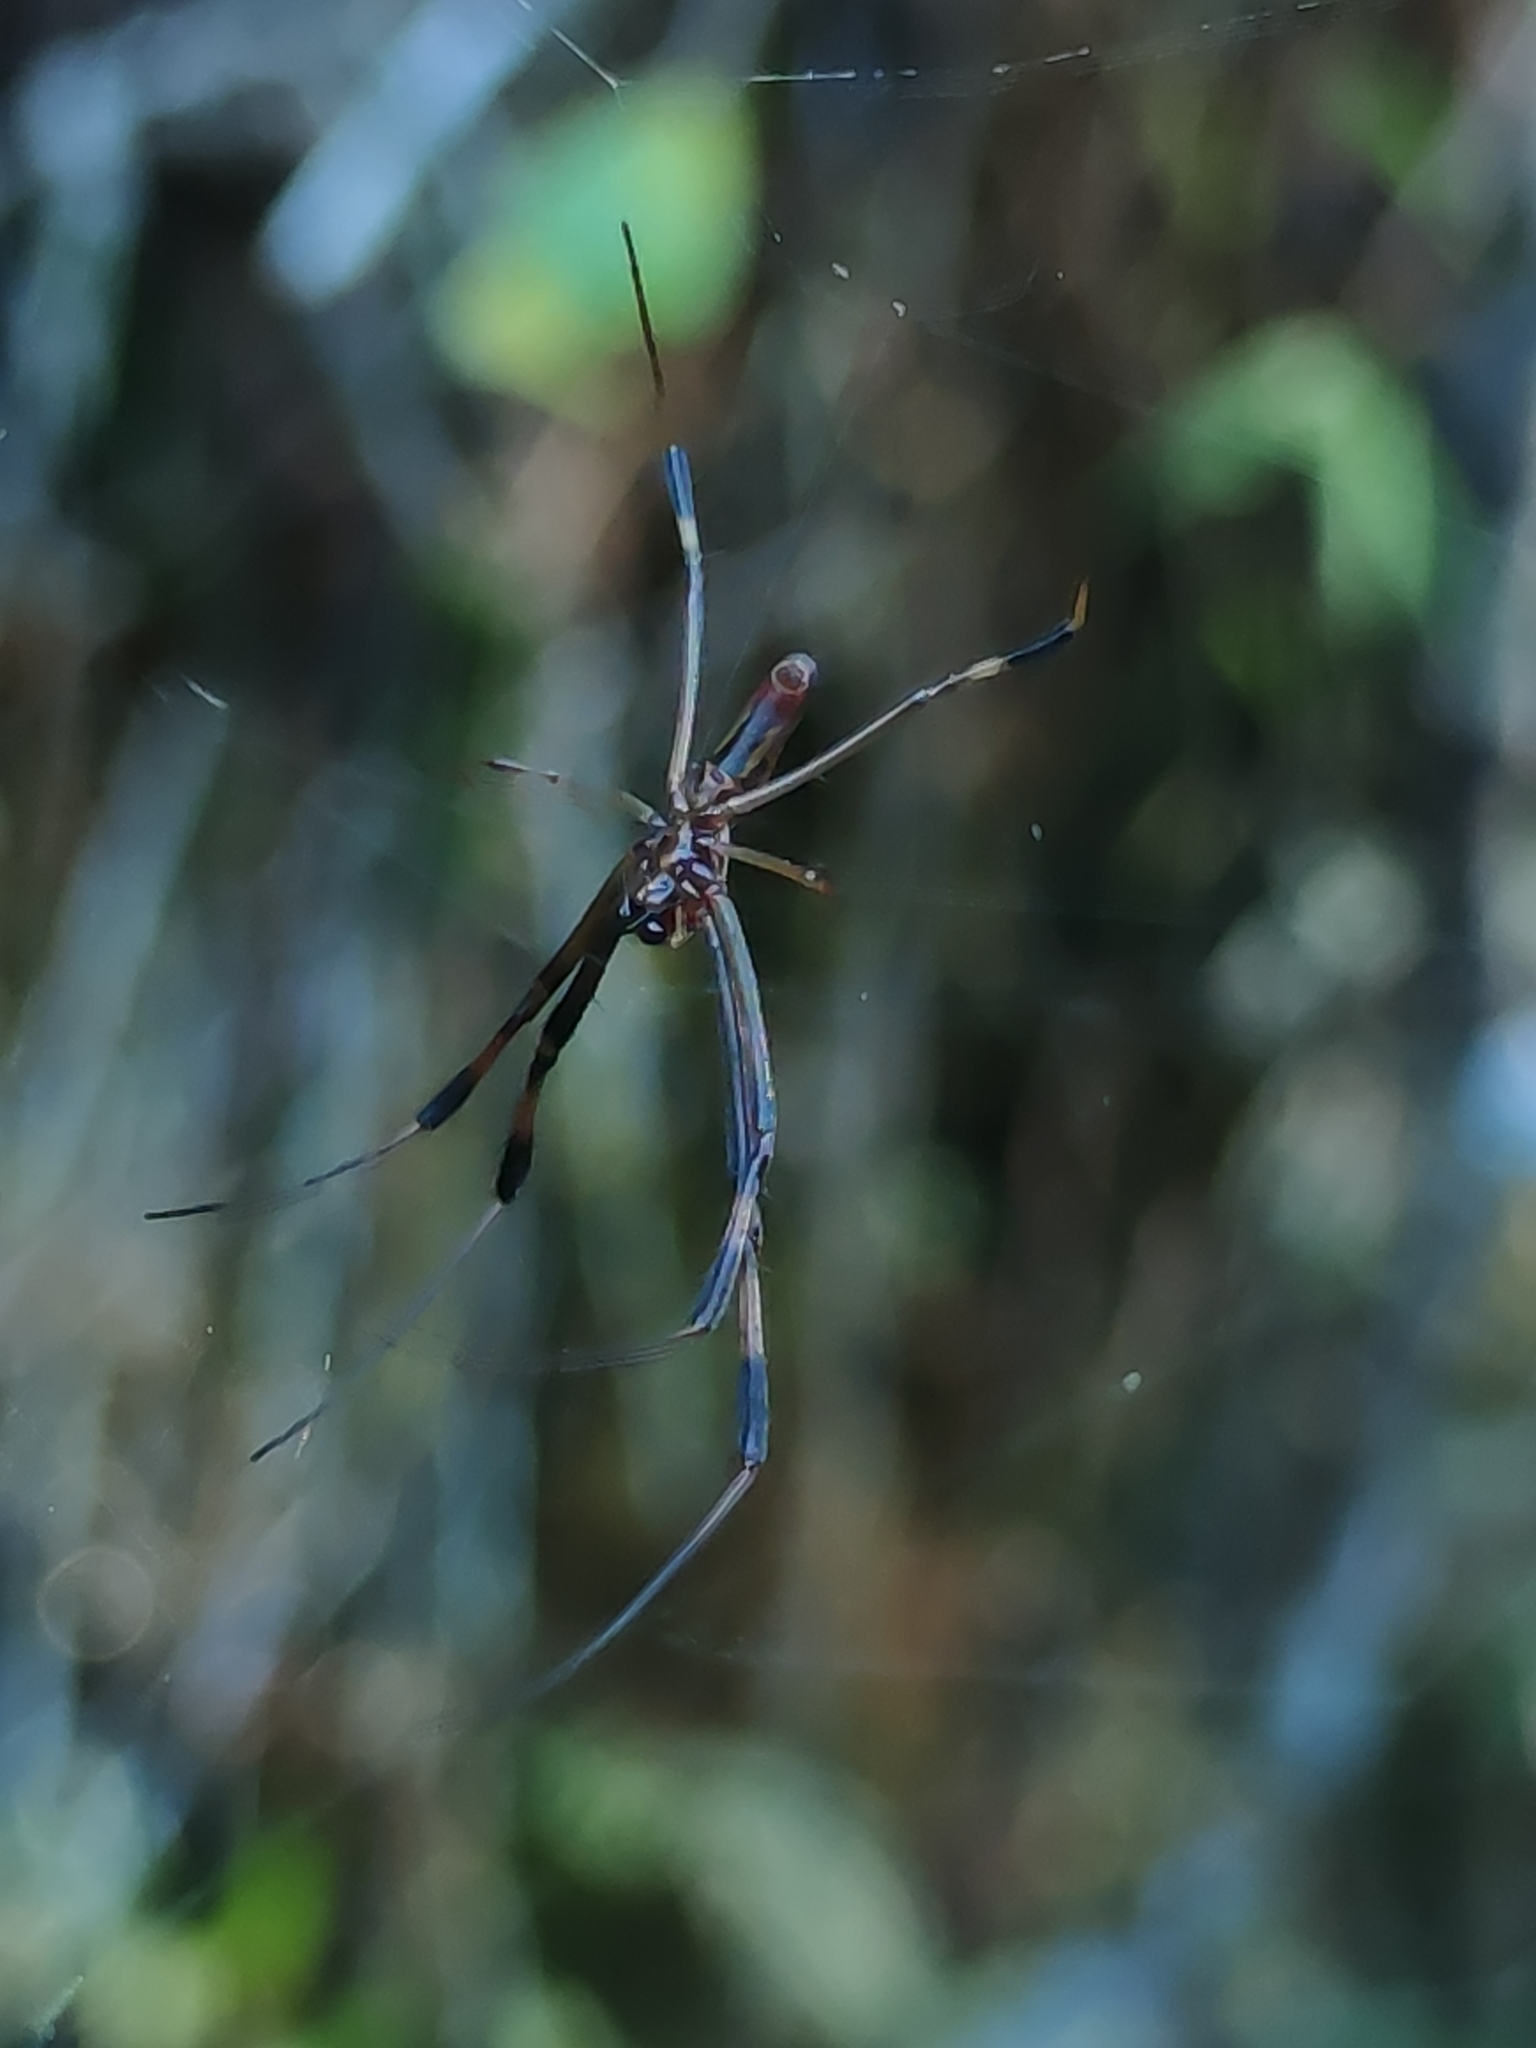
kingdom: Animalia
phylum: Arthropoda
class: Arachnida
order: Araneae
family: Araneidae
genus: Trichonephila
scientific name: Trichonephila clavipes
